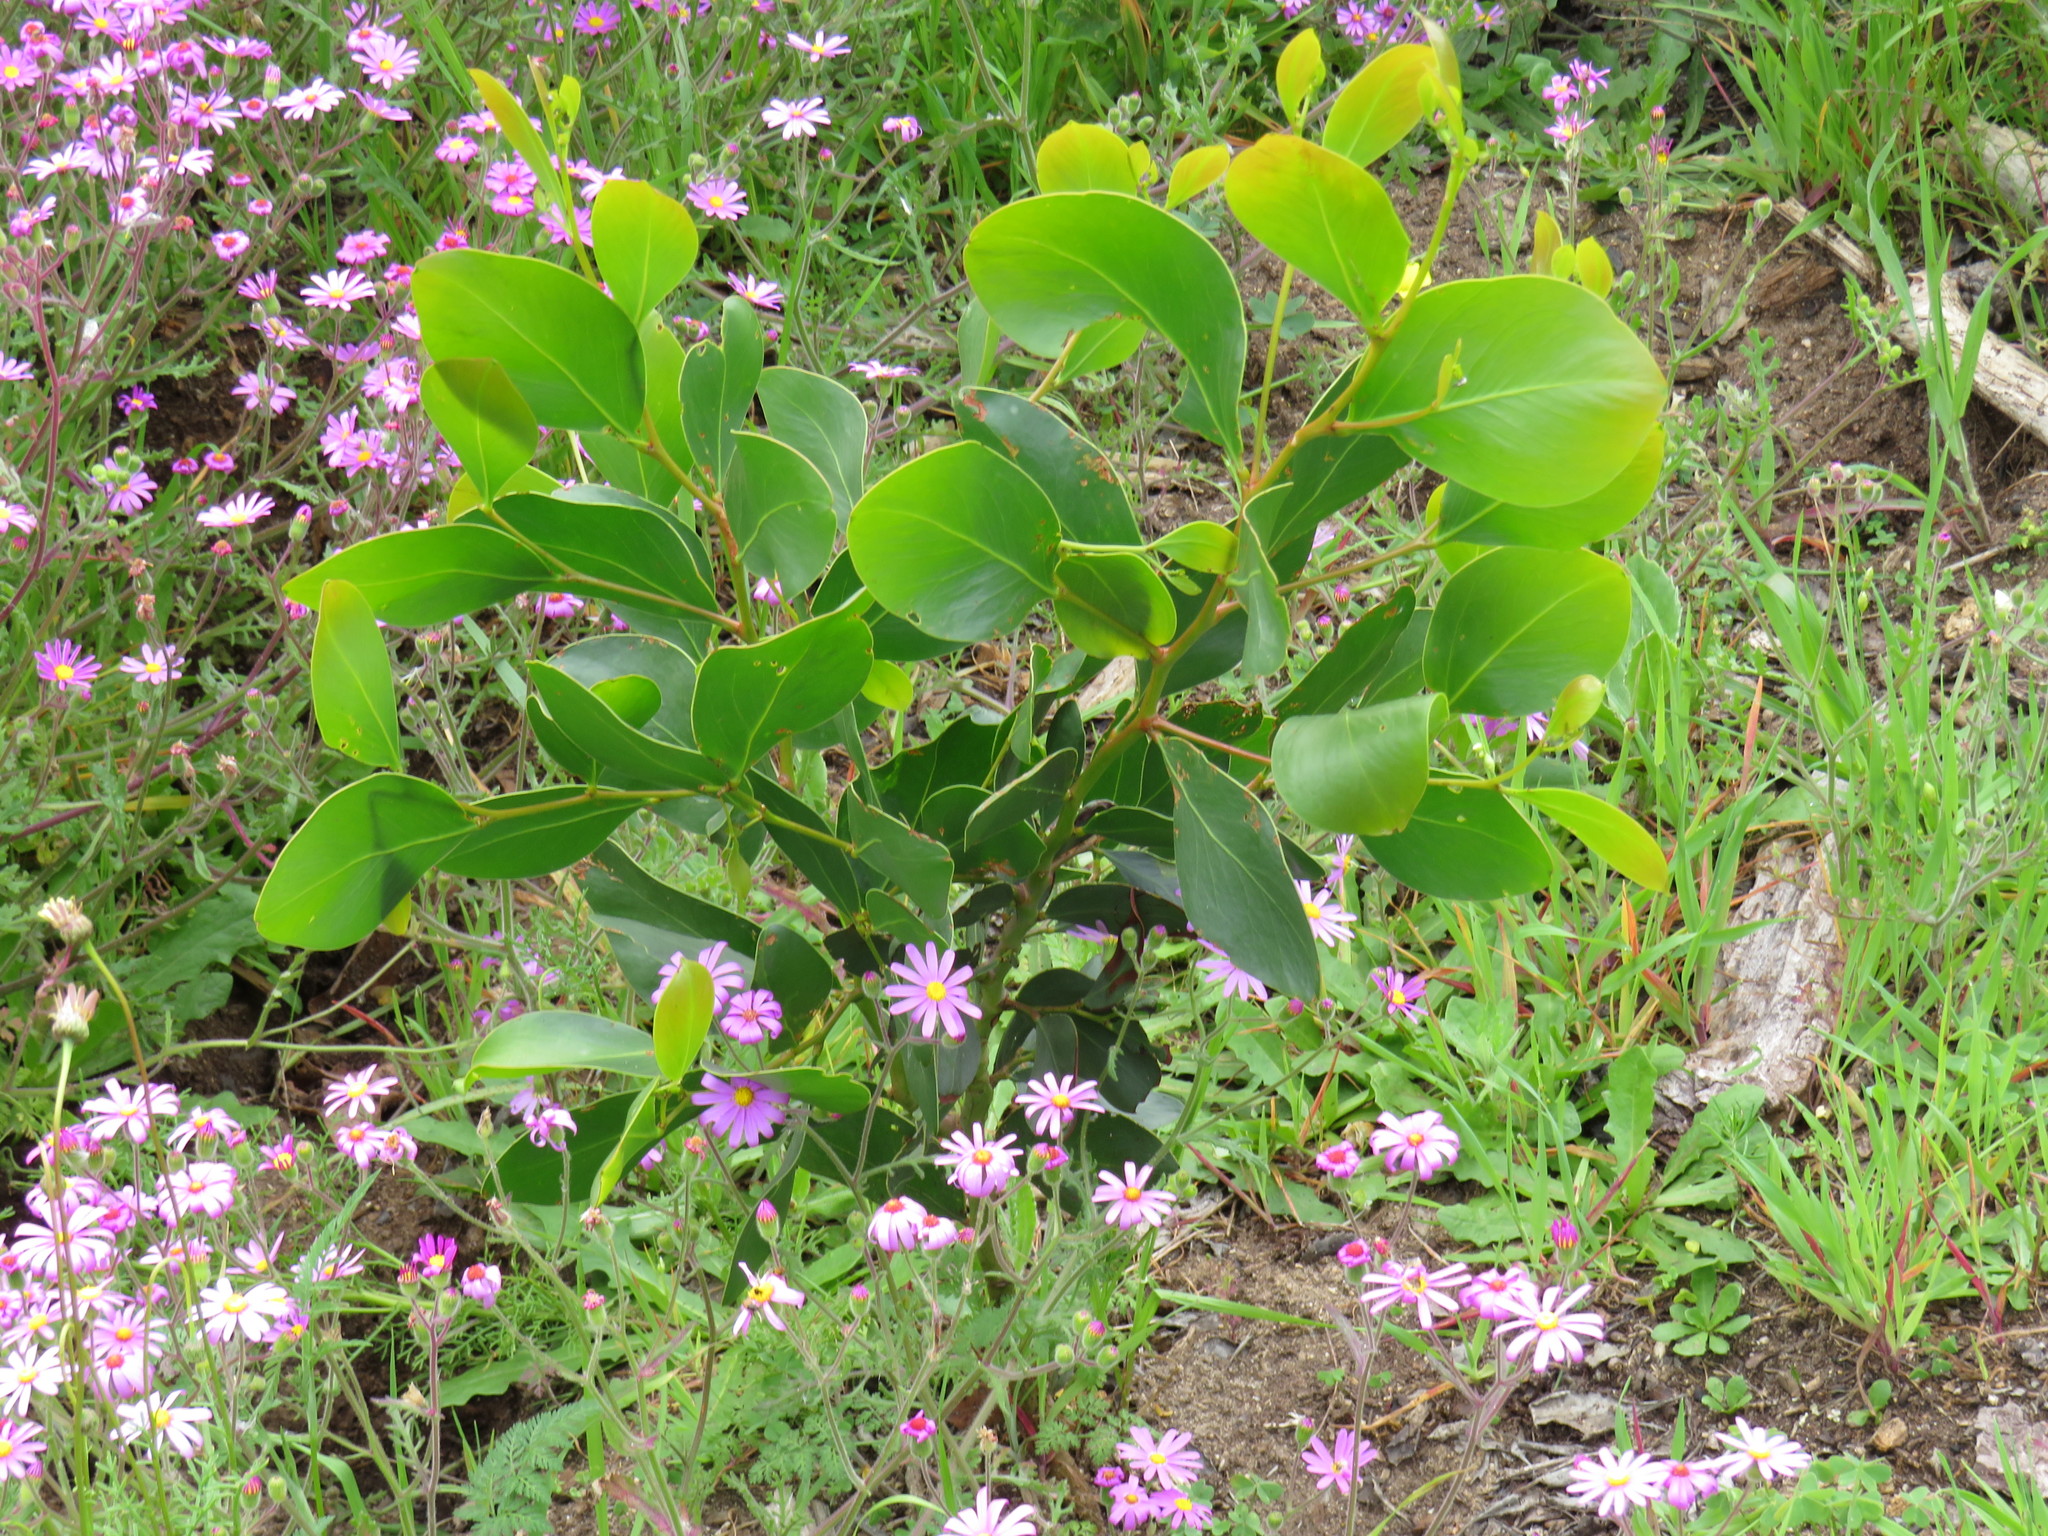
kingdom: Plantae
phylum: Tracheophyta
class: Magnoliopsida
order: Fabales
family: Fabaceae
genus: Acacia
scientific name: Acacia pycnantha
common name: Golden wattle
